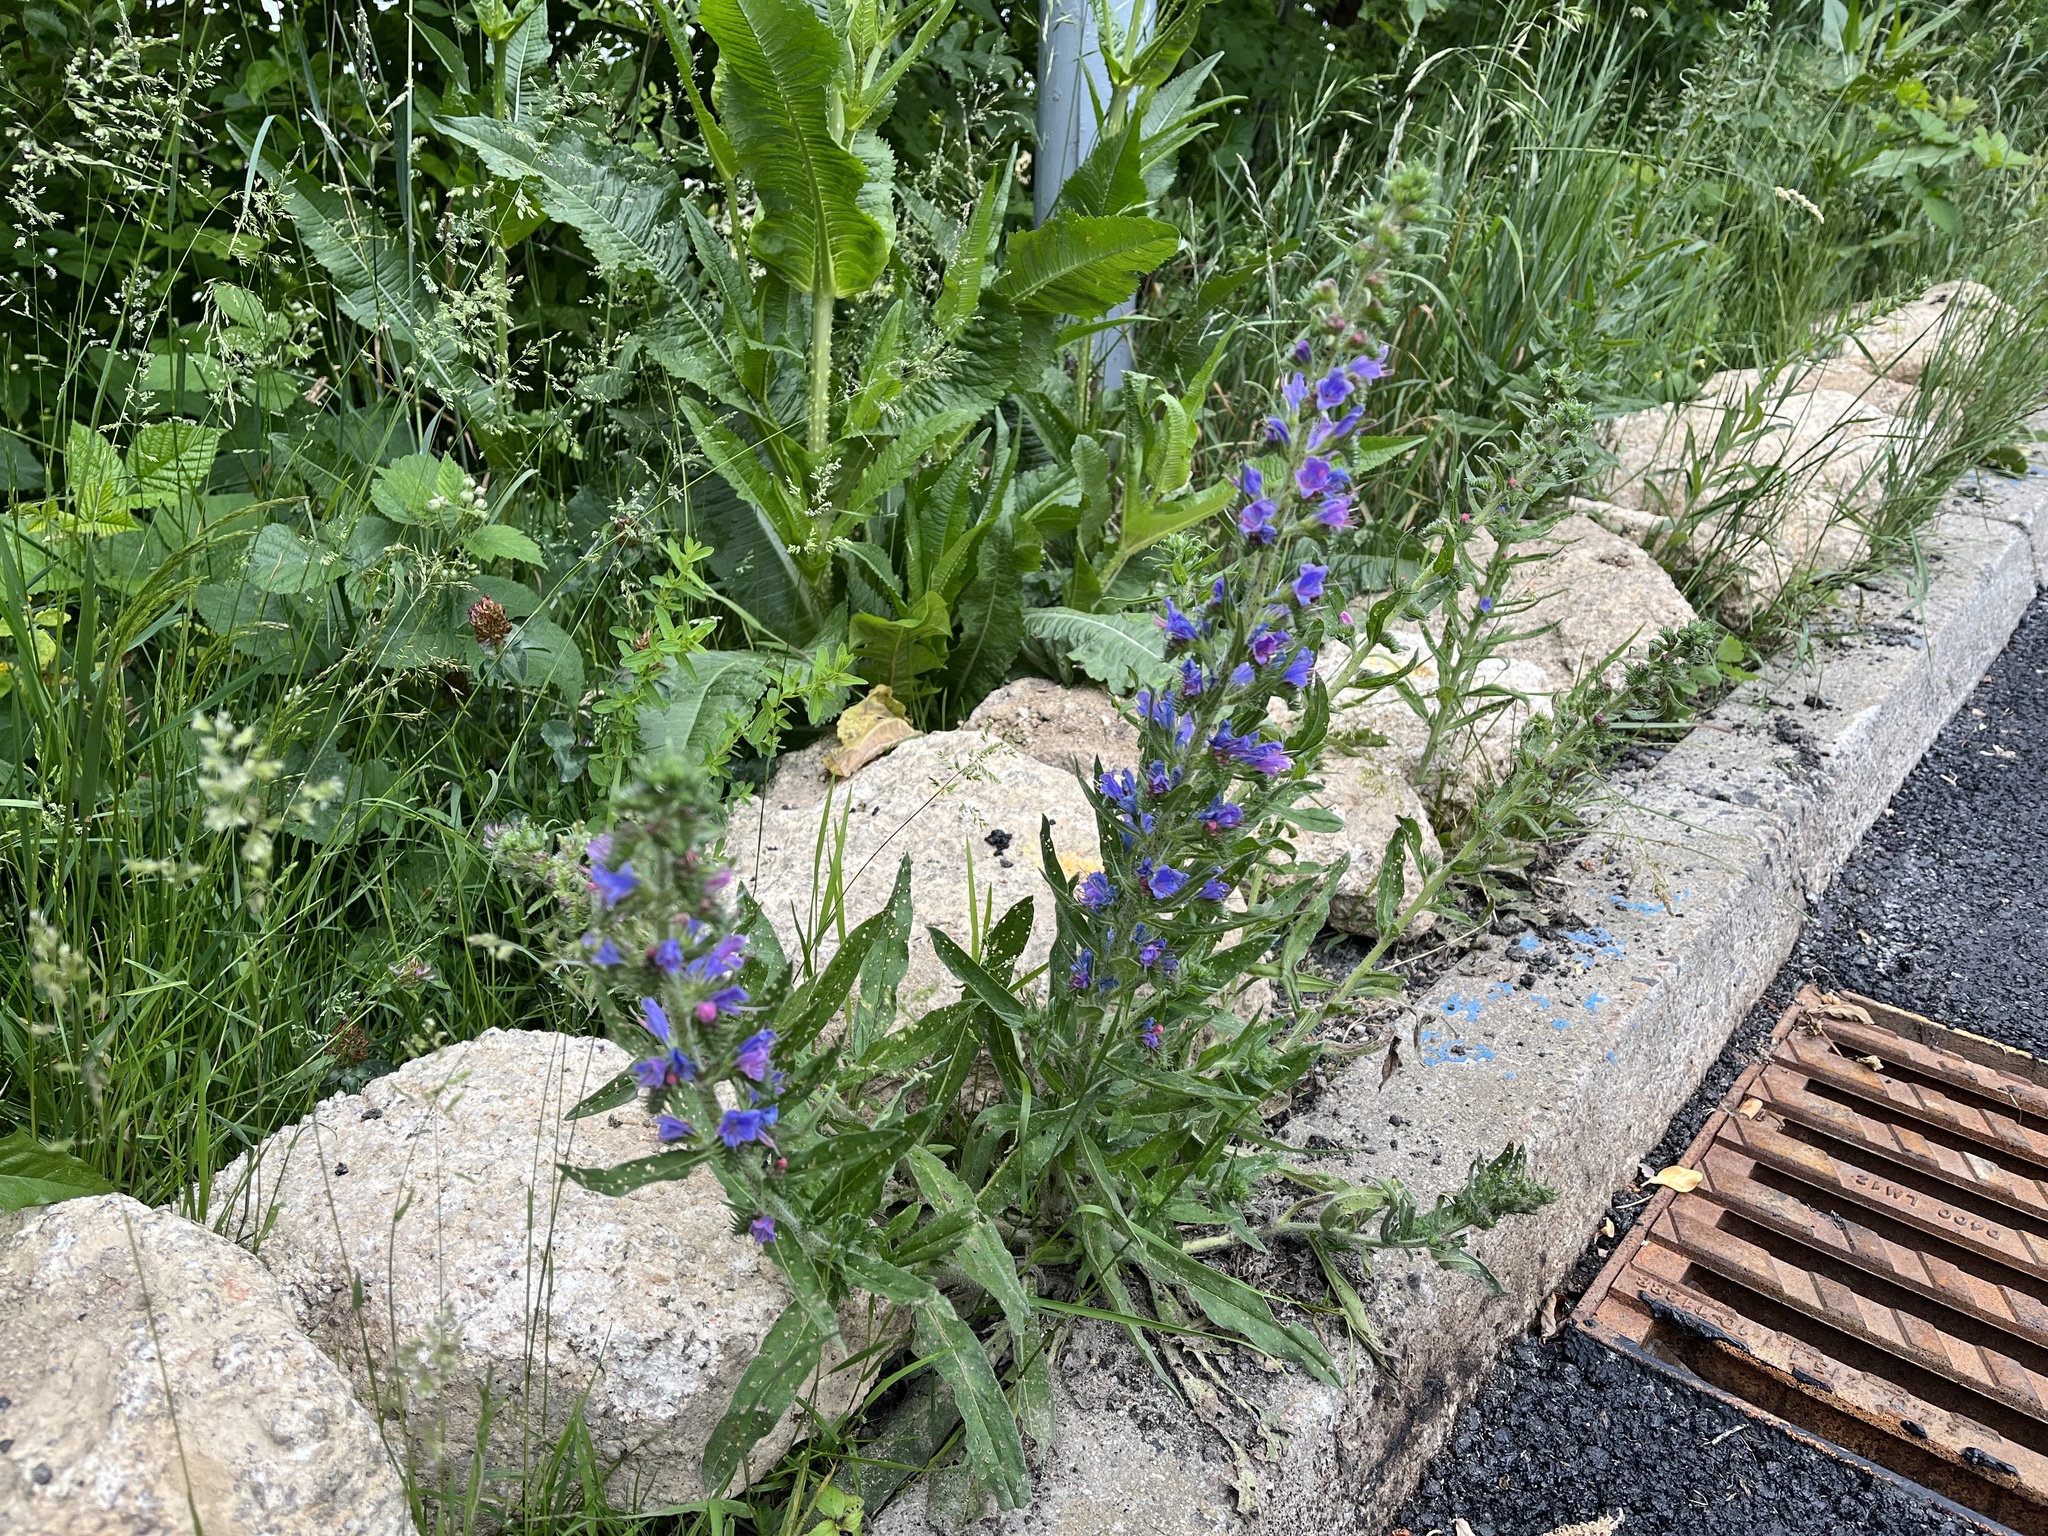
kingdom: Plantae
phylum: Tracheophyta
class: Magnoliopsida
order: Boraginales
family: Boraginaceae
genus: Echium
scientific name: Echium vulgare
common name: Common viper's bugloss
